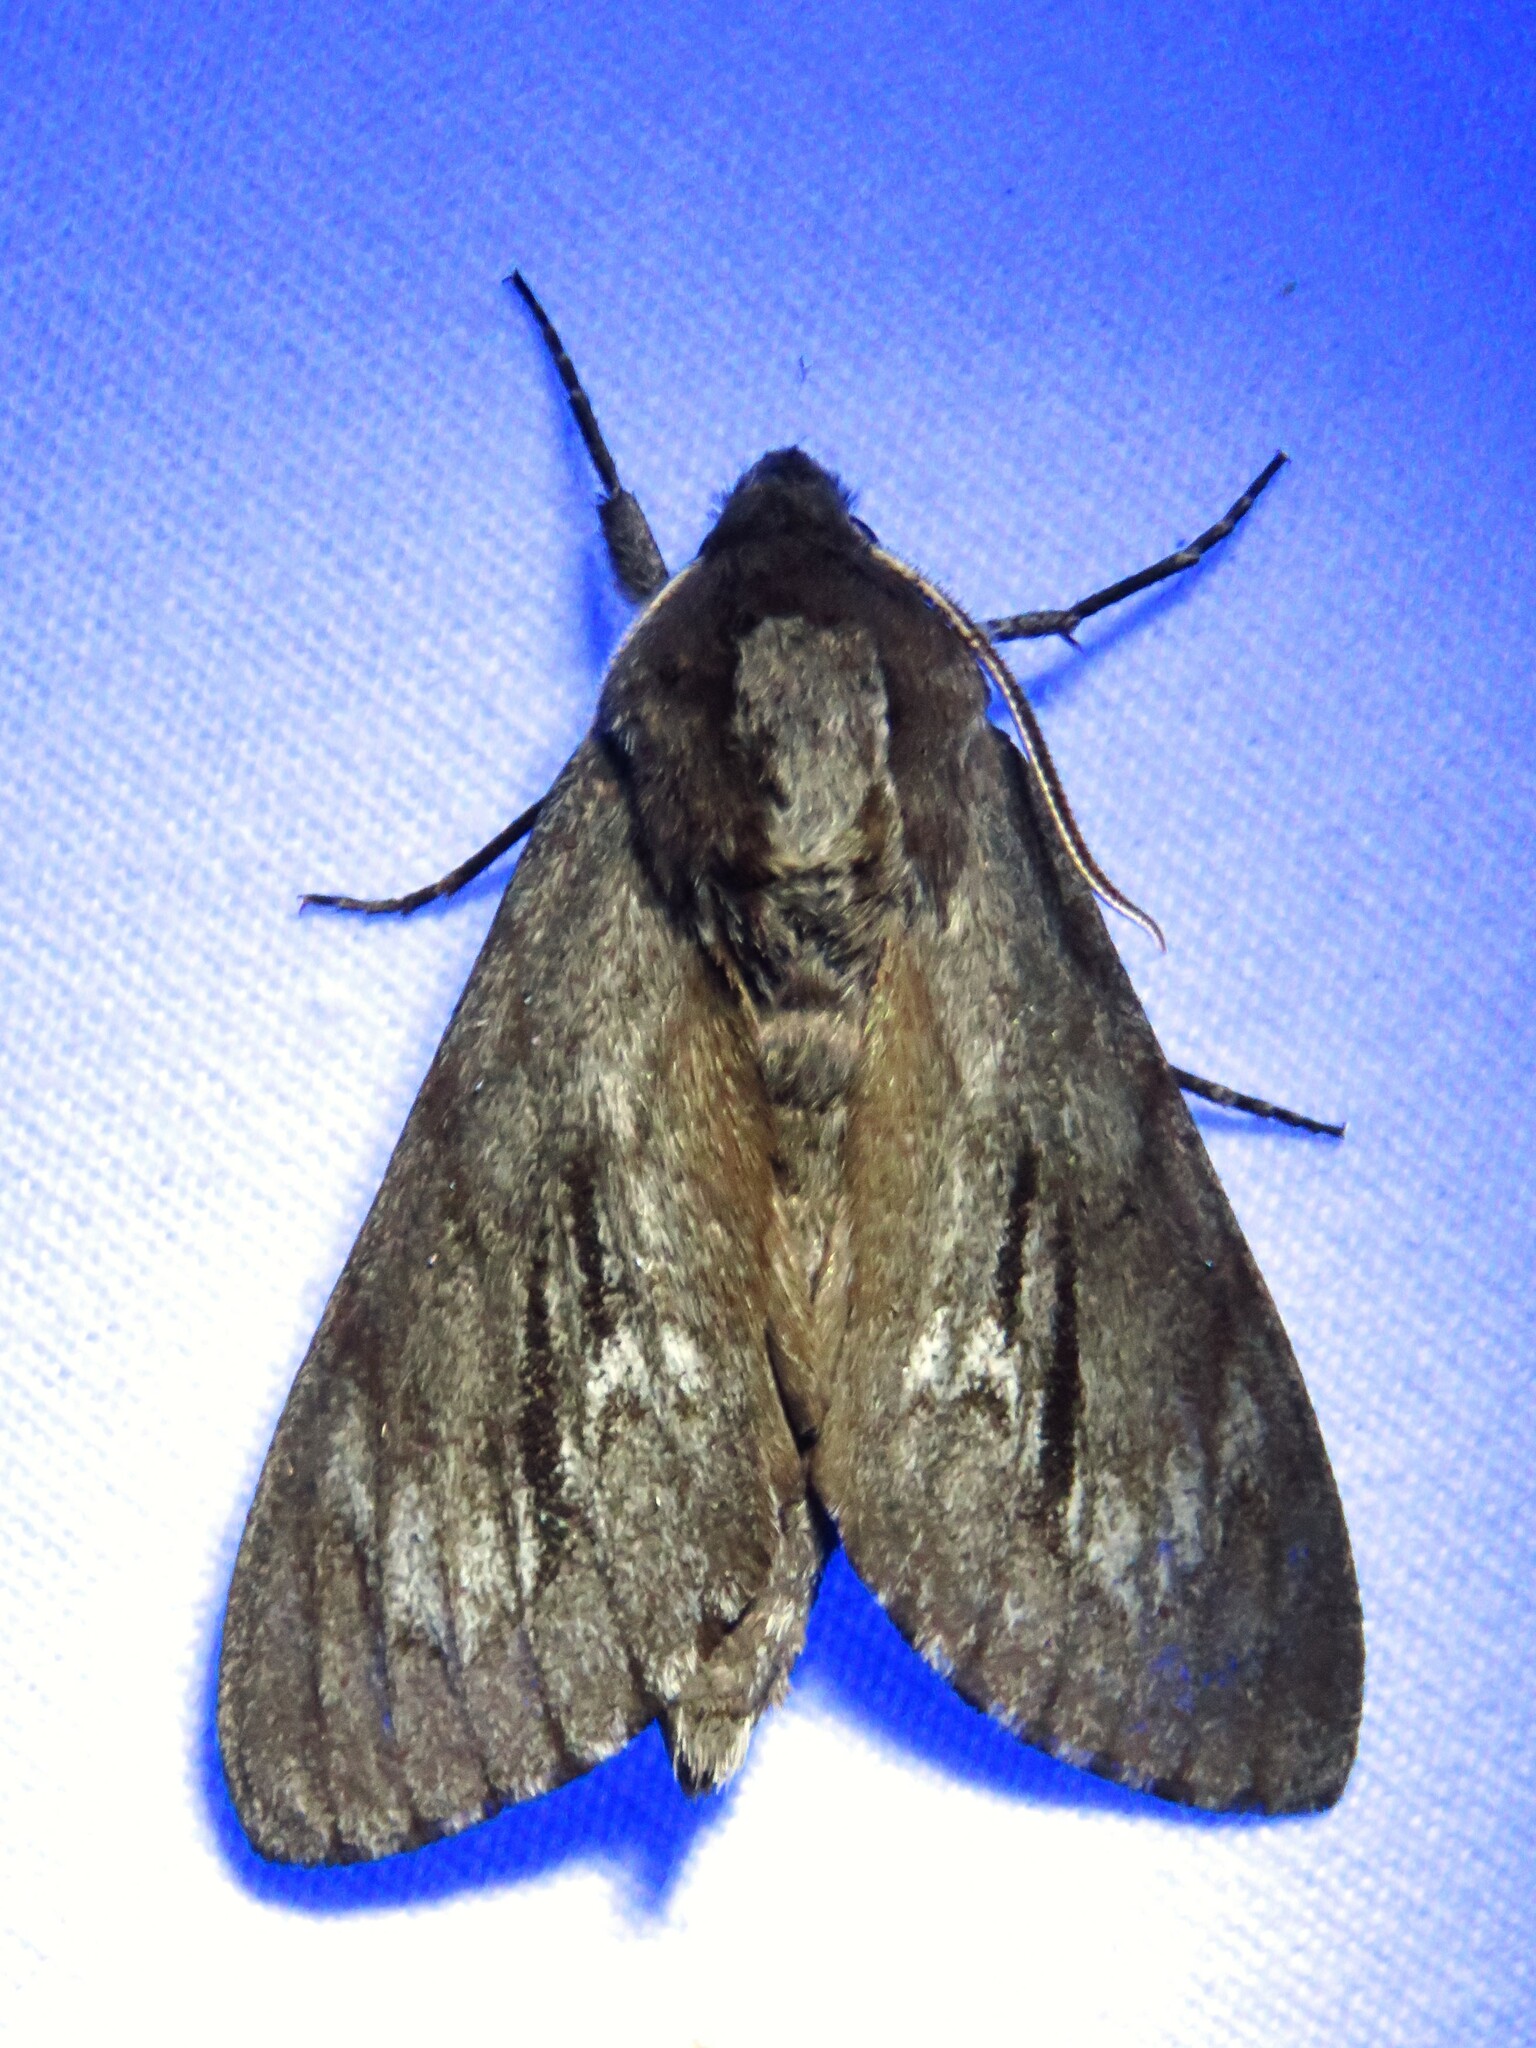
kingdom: Animalia
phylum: Arthropoda
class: Insecta
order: Lepidoptera
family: Sphingidae
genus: Lapara
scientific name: Lapara coniferarum
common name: Southern pine sphinx
